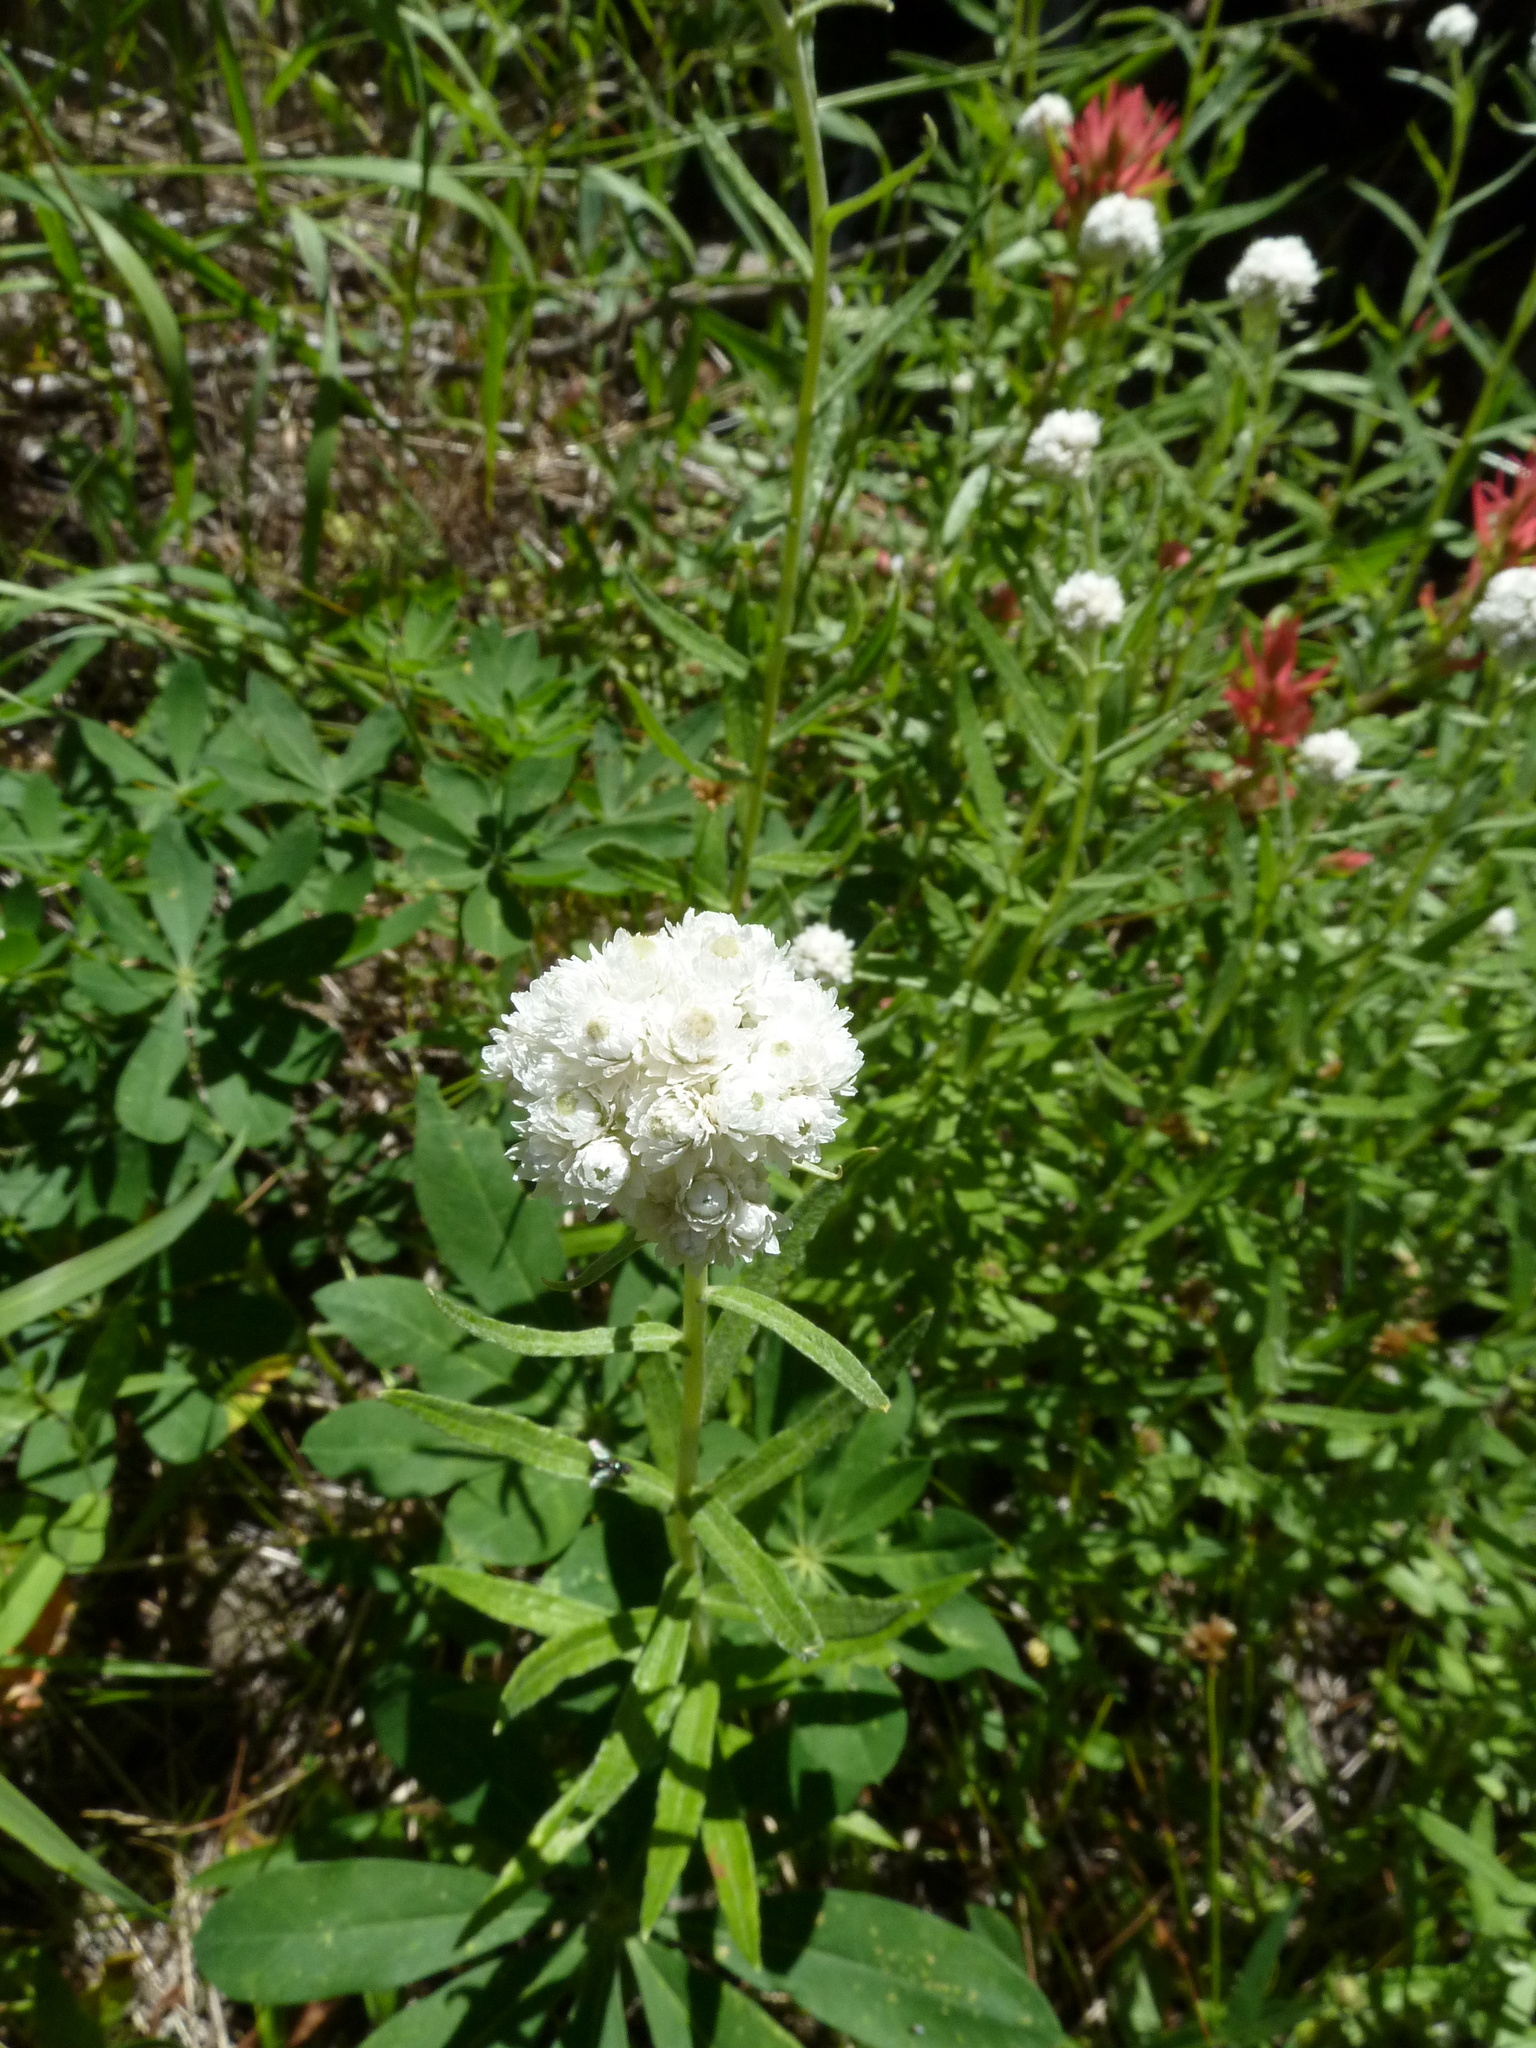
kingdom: Plantae
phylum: Tracheophyta
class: Magnoliopsida
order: Asterales
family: Asteraceae
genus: Anaphalis
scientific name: Anaphalis margaritacea
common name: Pearly everlasting
